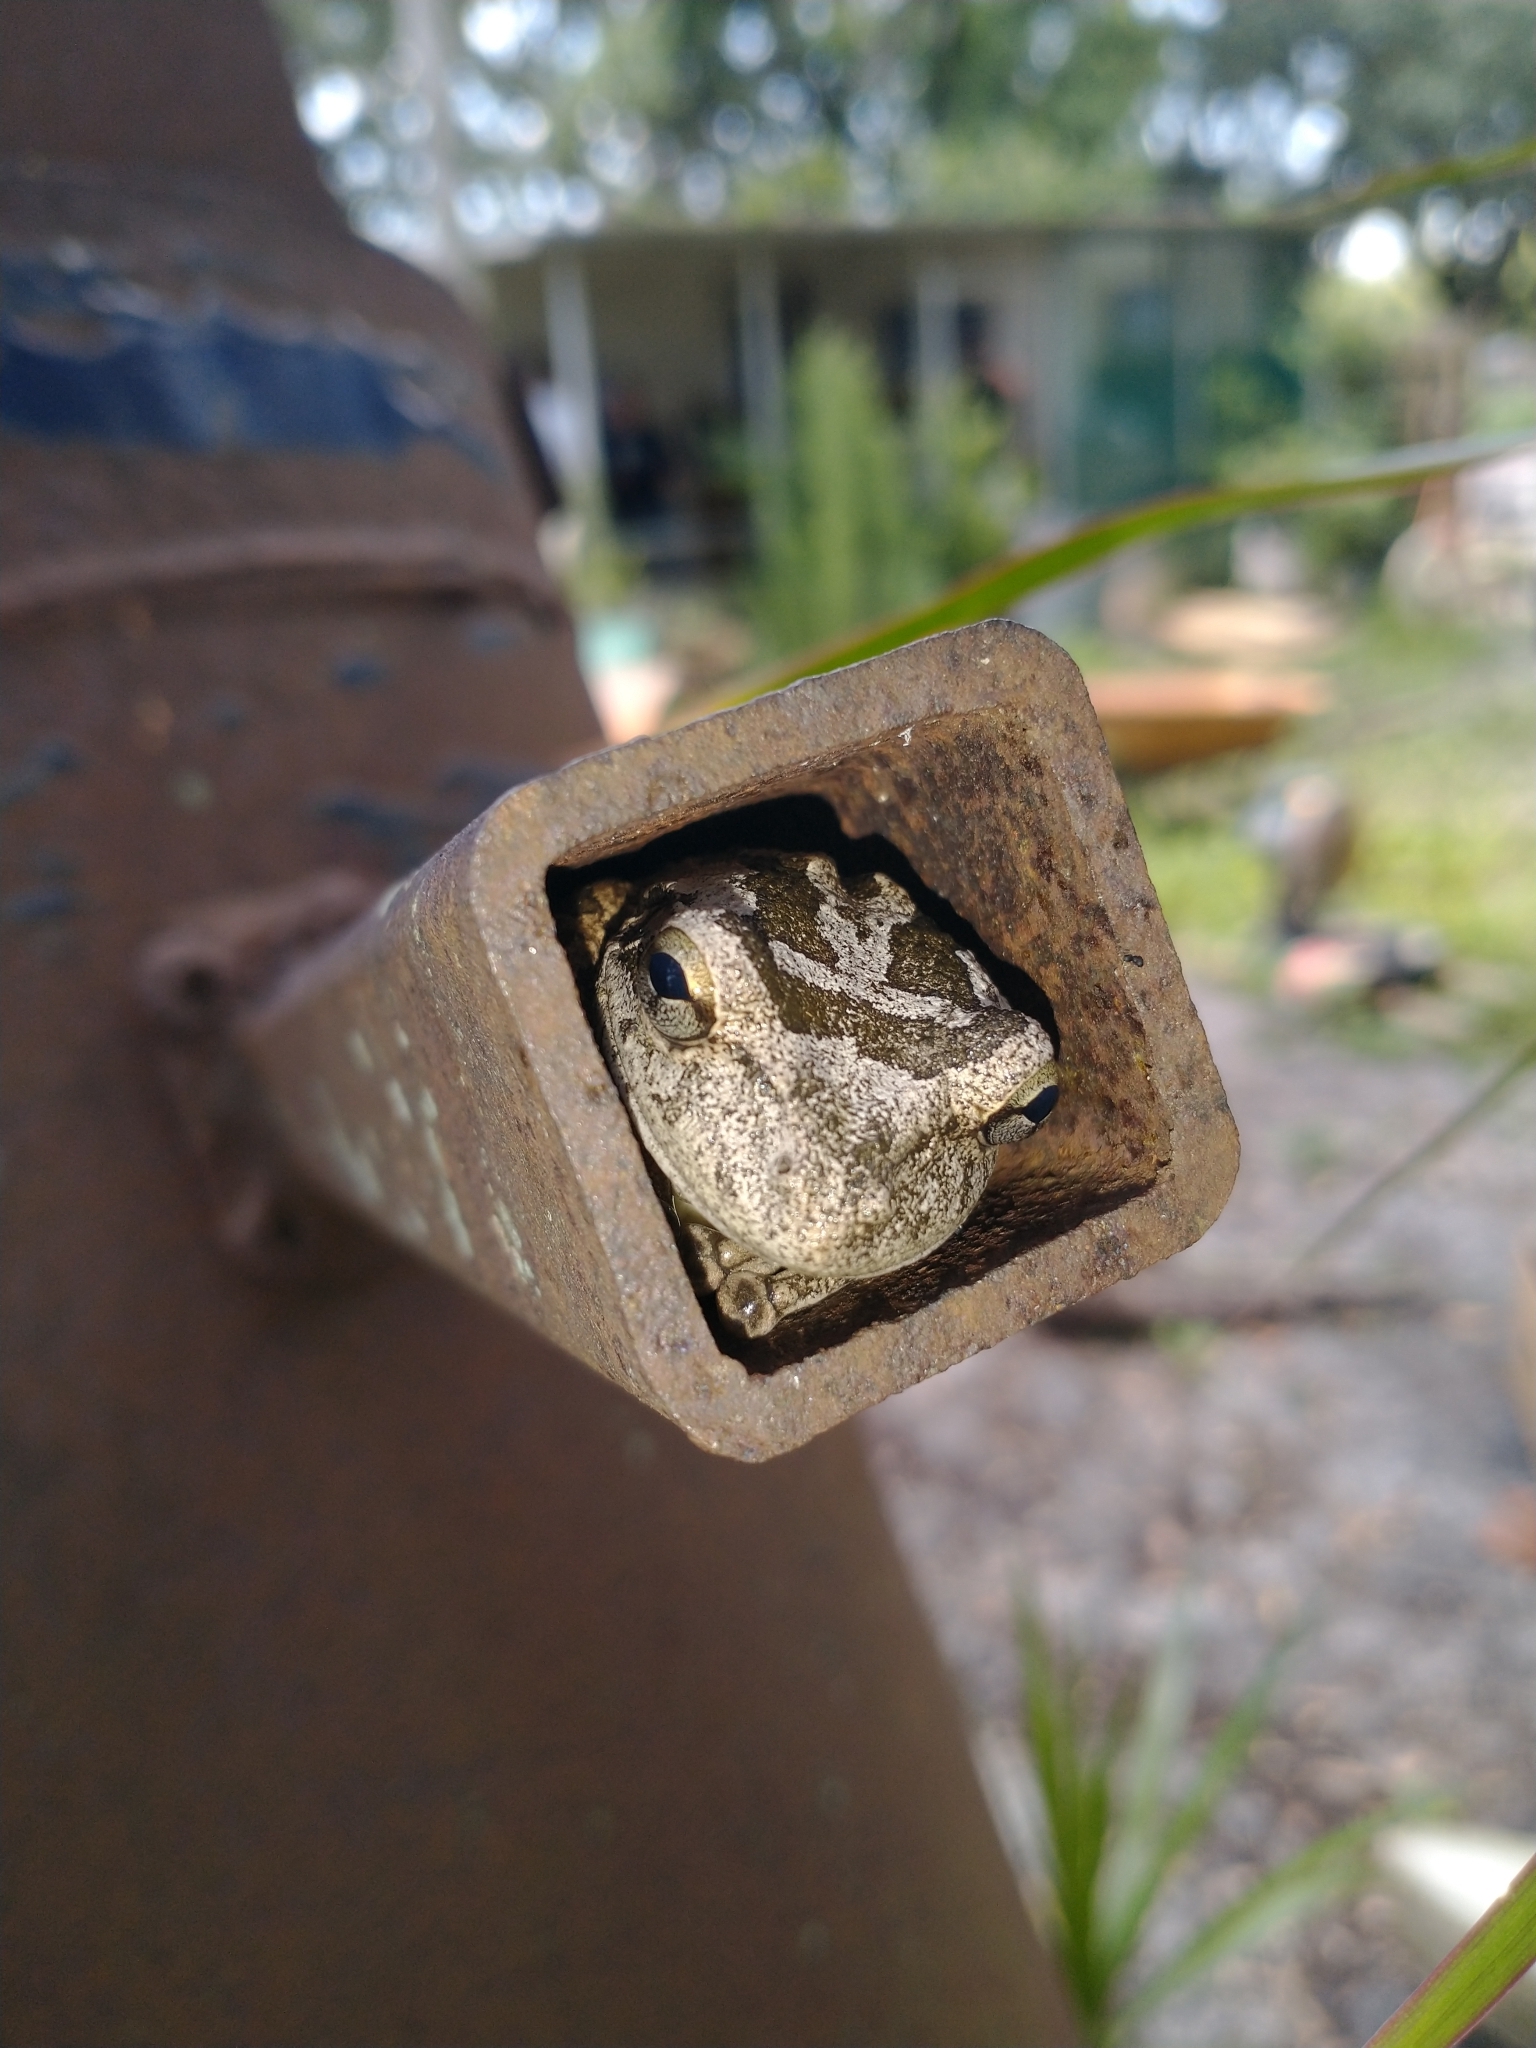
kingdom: Animalia
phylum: Chordata
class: Amphibia
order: Anura
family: Hylidae
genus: Osteopilus
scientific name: Osteopilus septentrionalis
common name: Cuban treefrog
